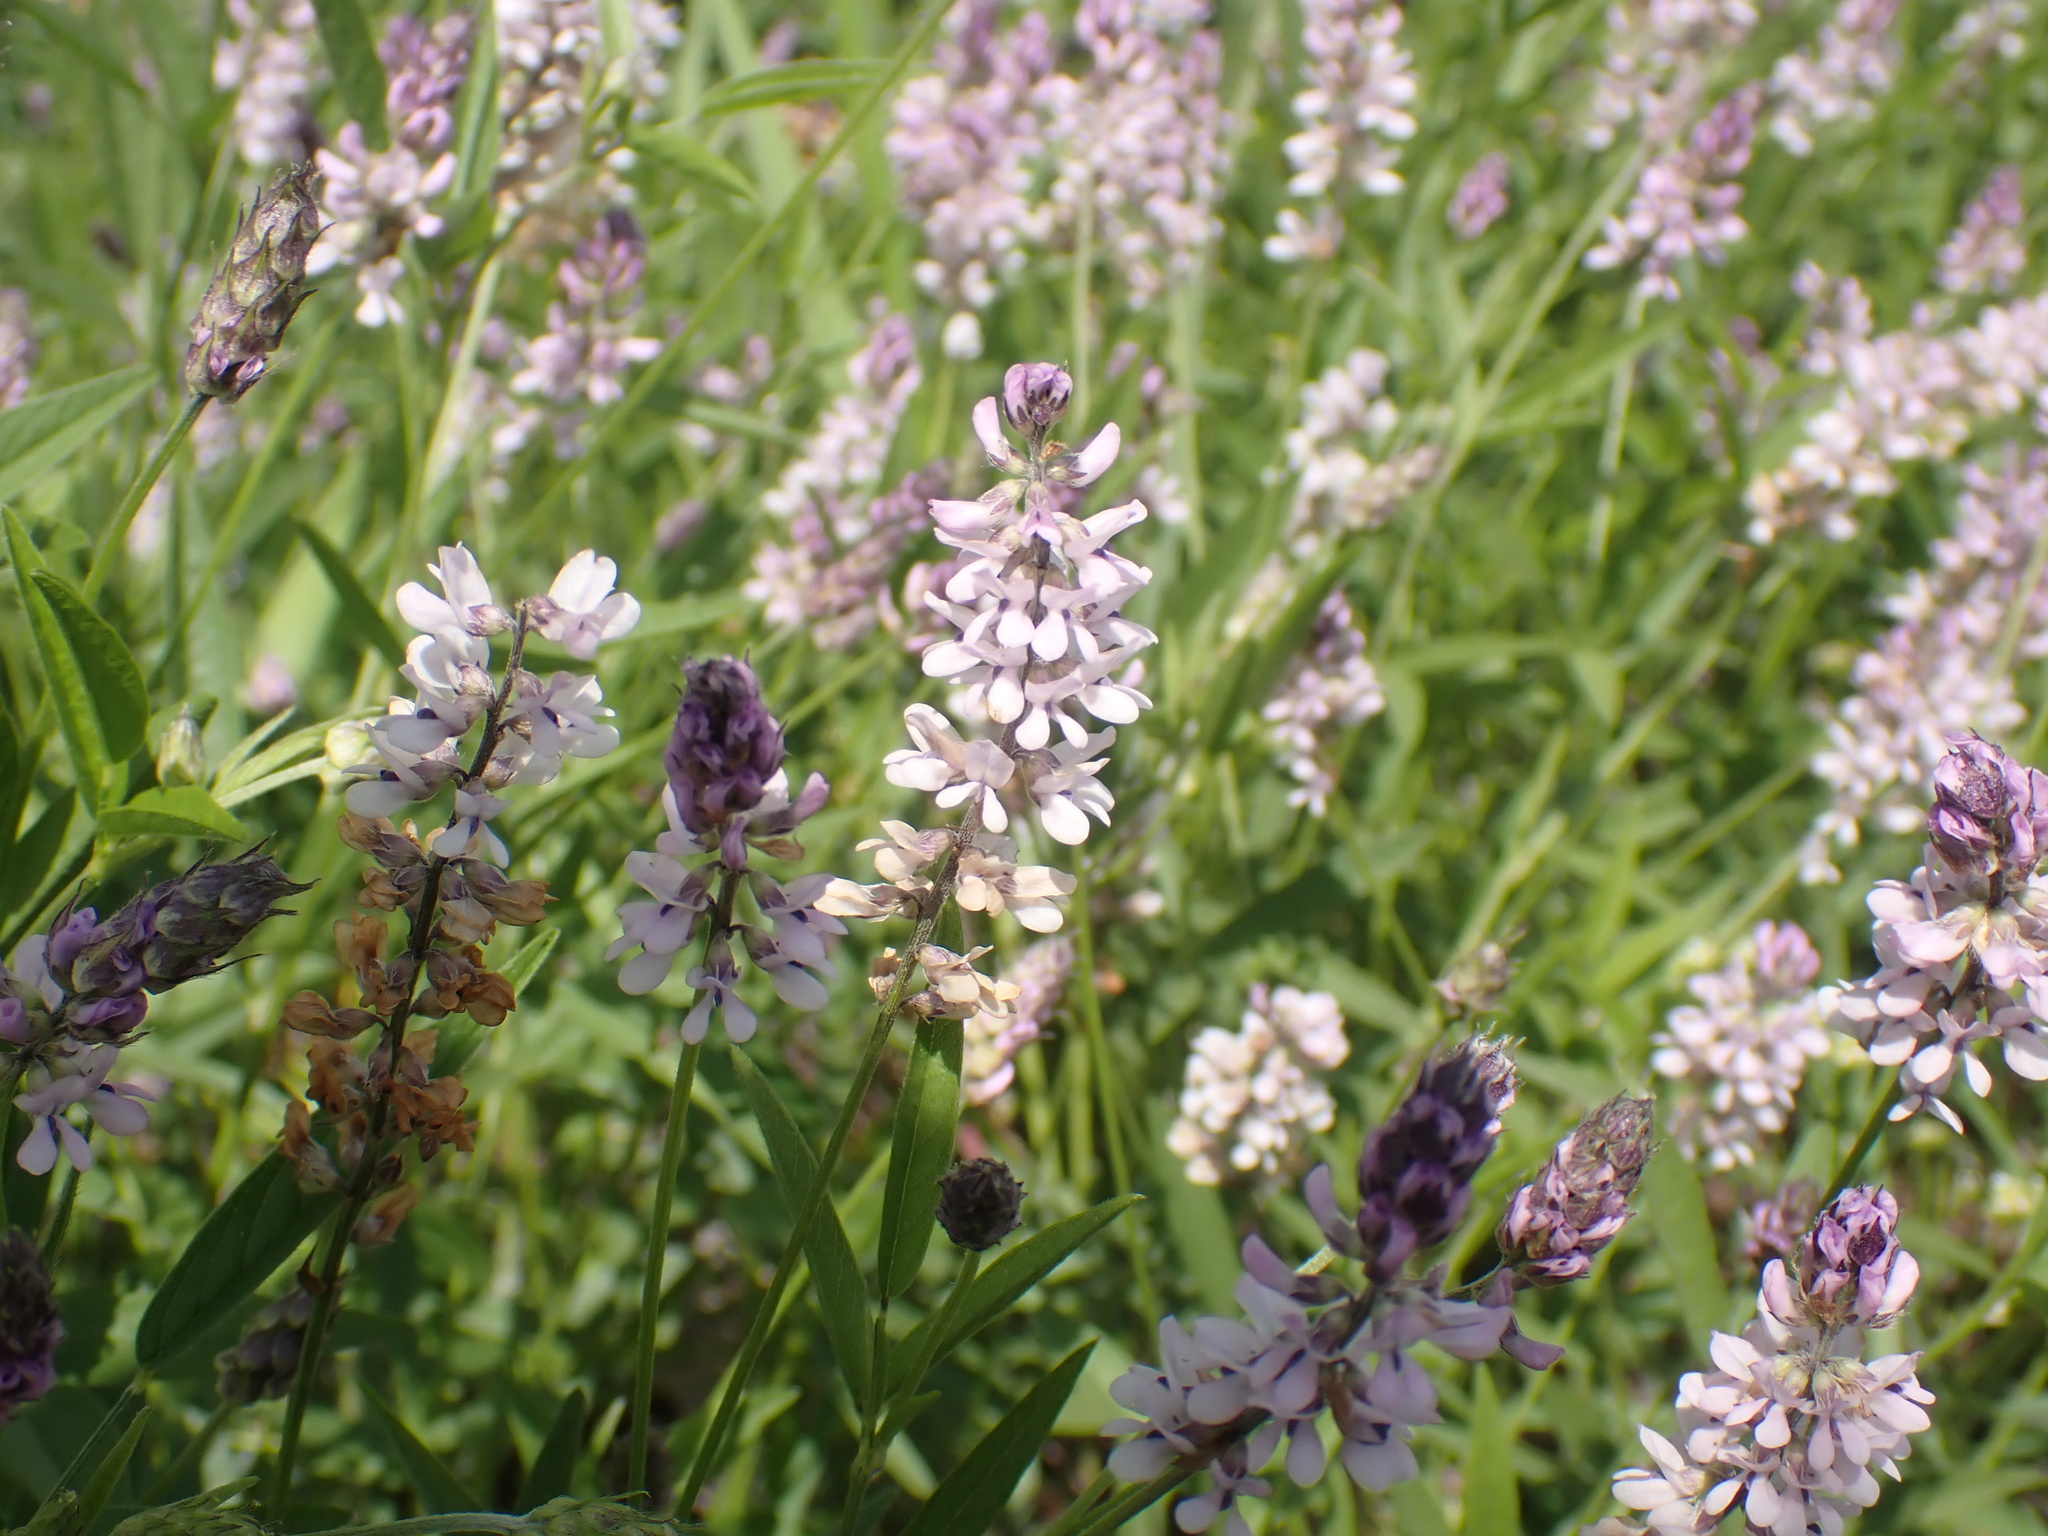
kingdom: Plantae
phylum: Tracheophyta
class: Magnoliopsida
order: Fabales
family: Fabaceae
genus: Orbexilum
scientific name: Orbexilum pedunculatum
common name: Sampson's snakeroot
